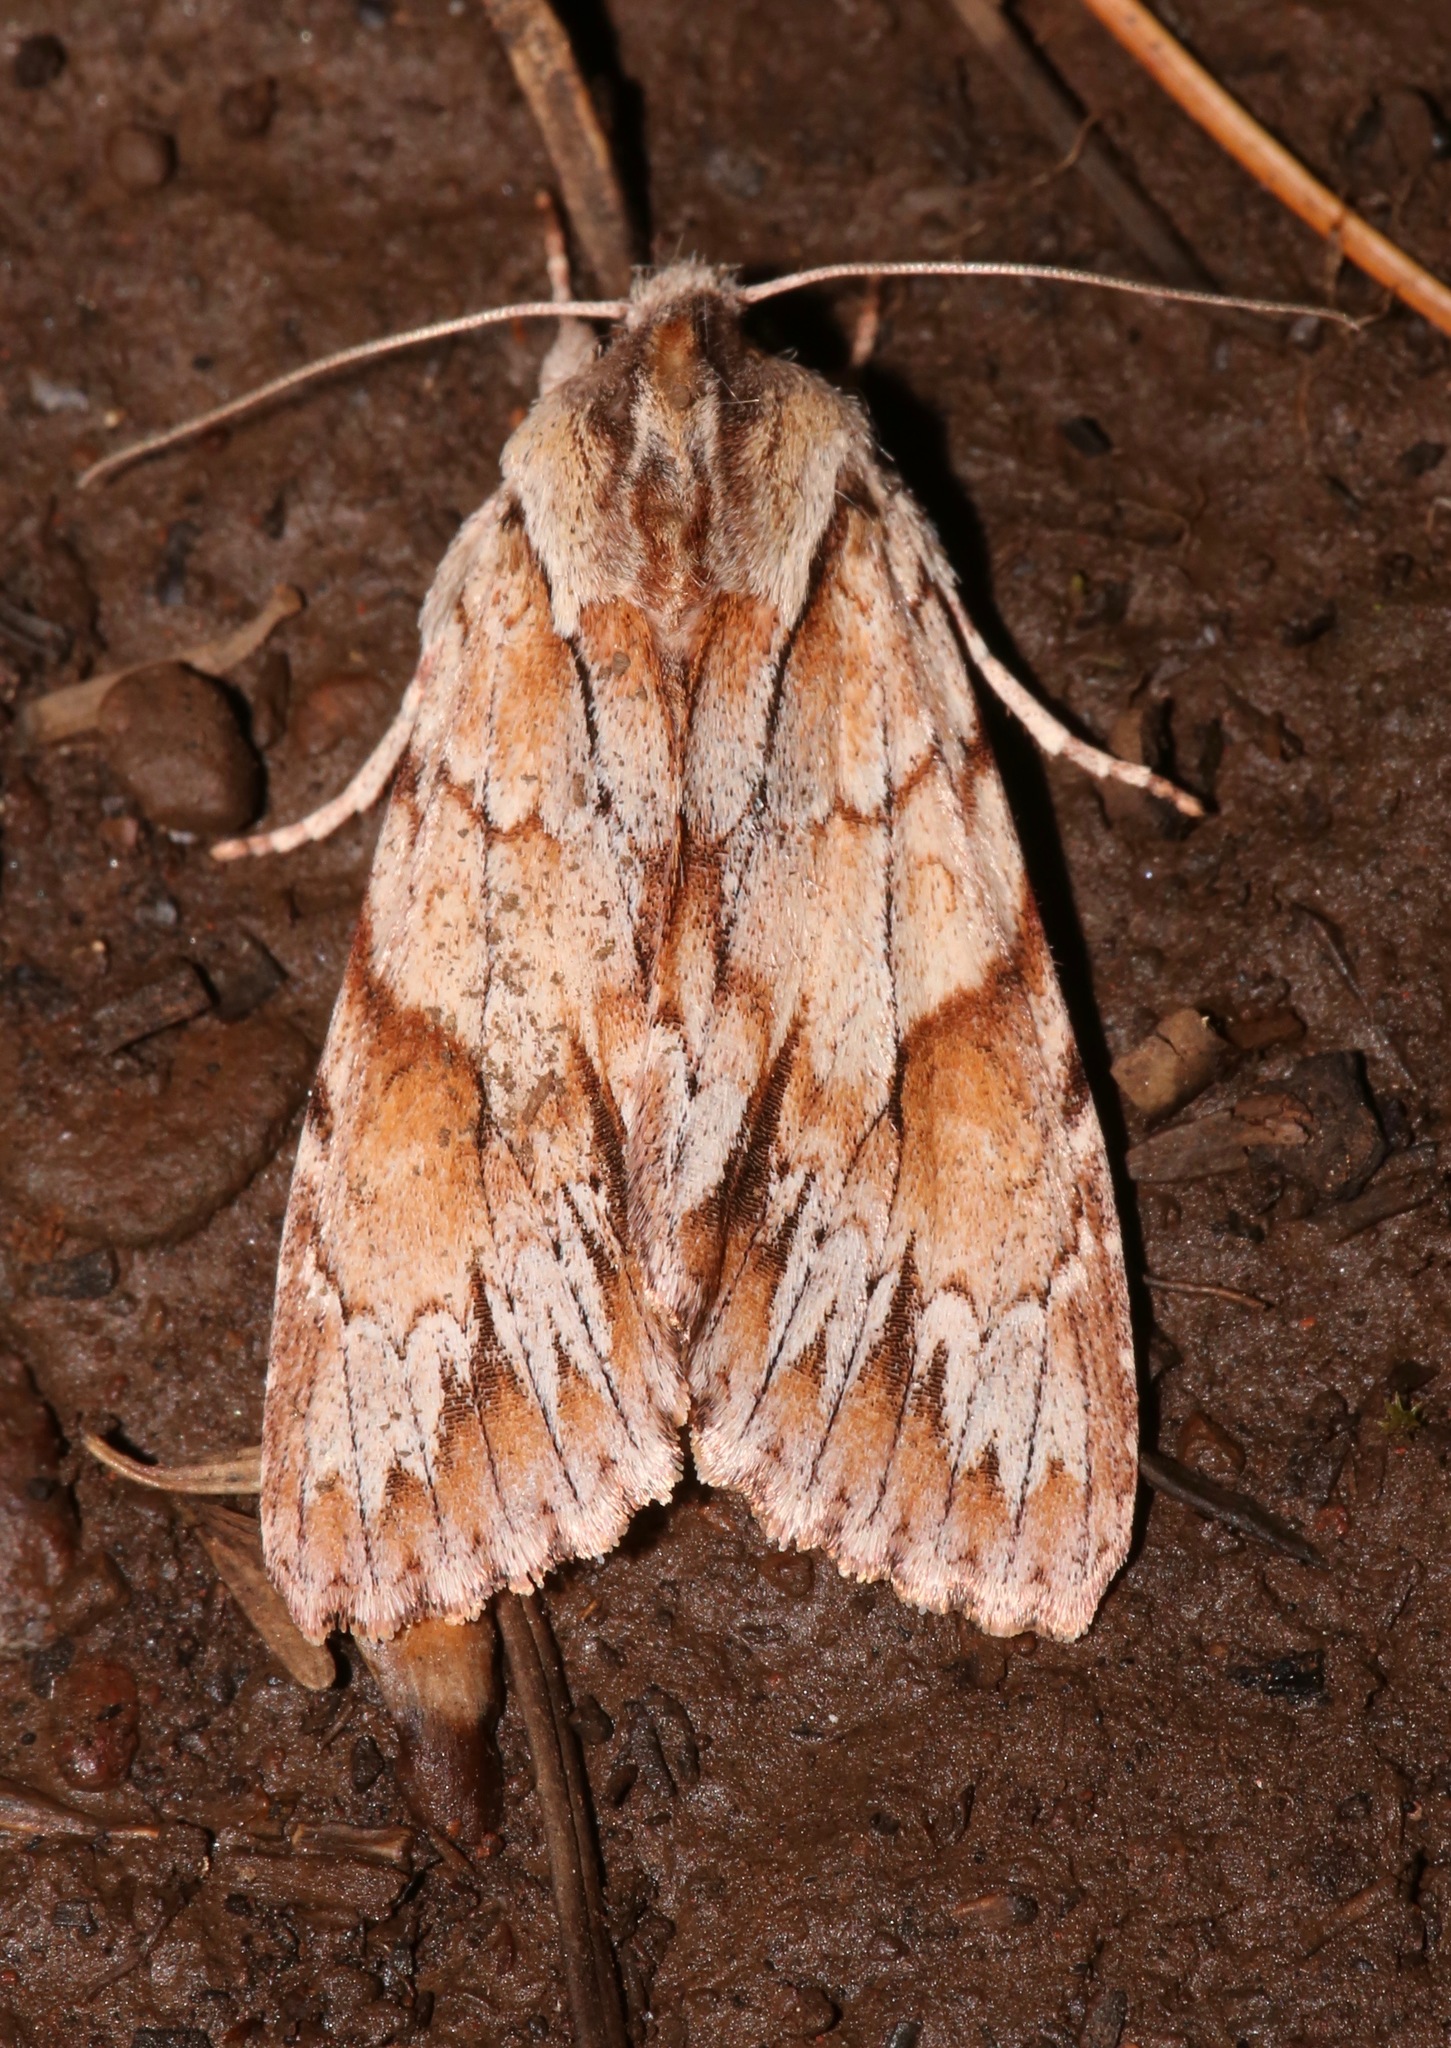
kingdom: Animalia
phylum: Arthropoda
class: Insecta
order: Lepidoptera
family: Noctuidae
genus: Andropolia
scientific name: Andropolia theodori
